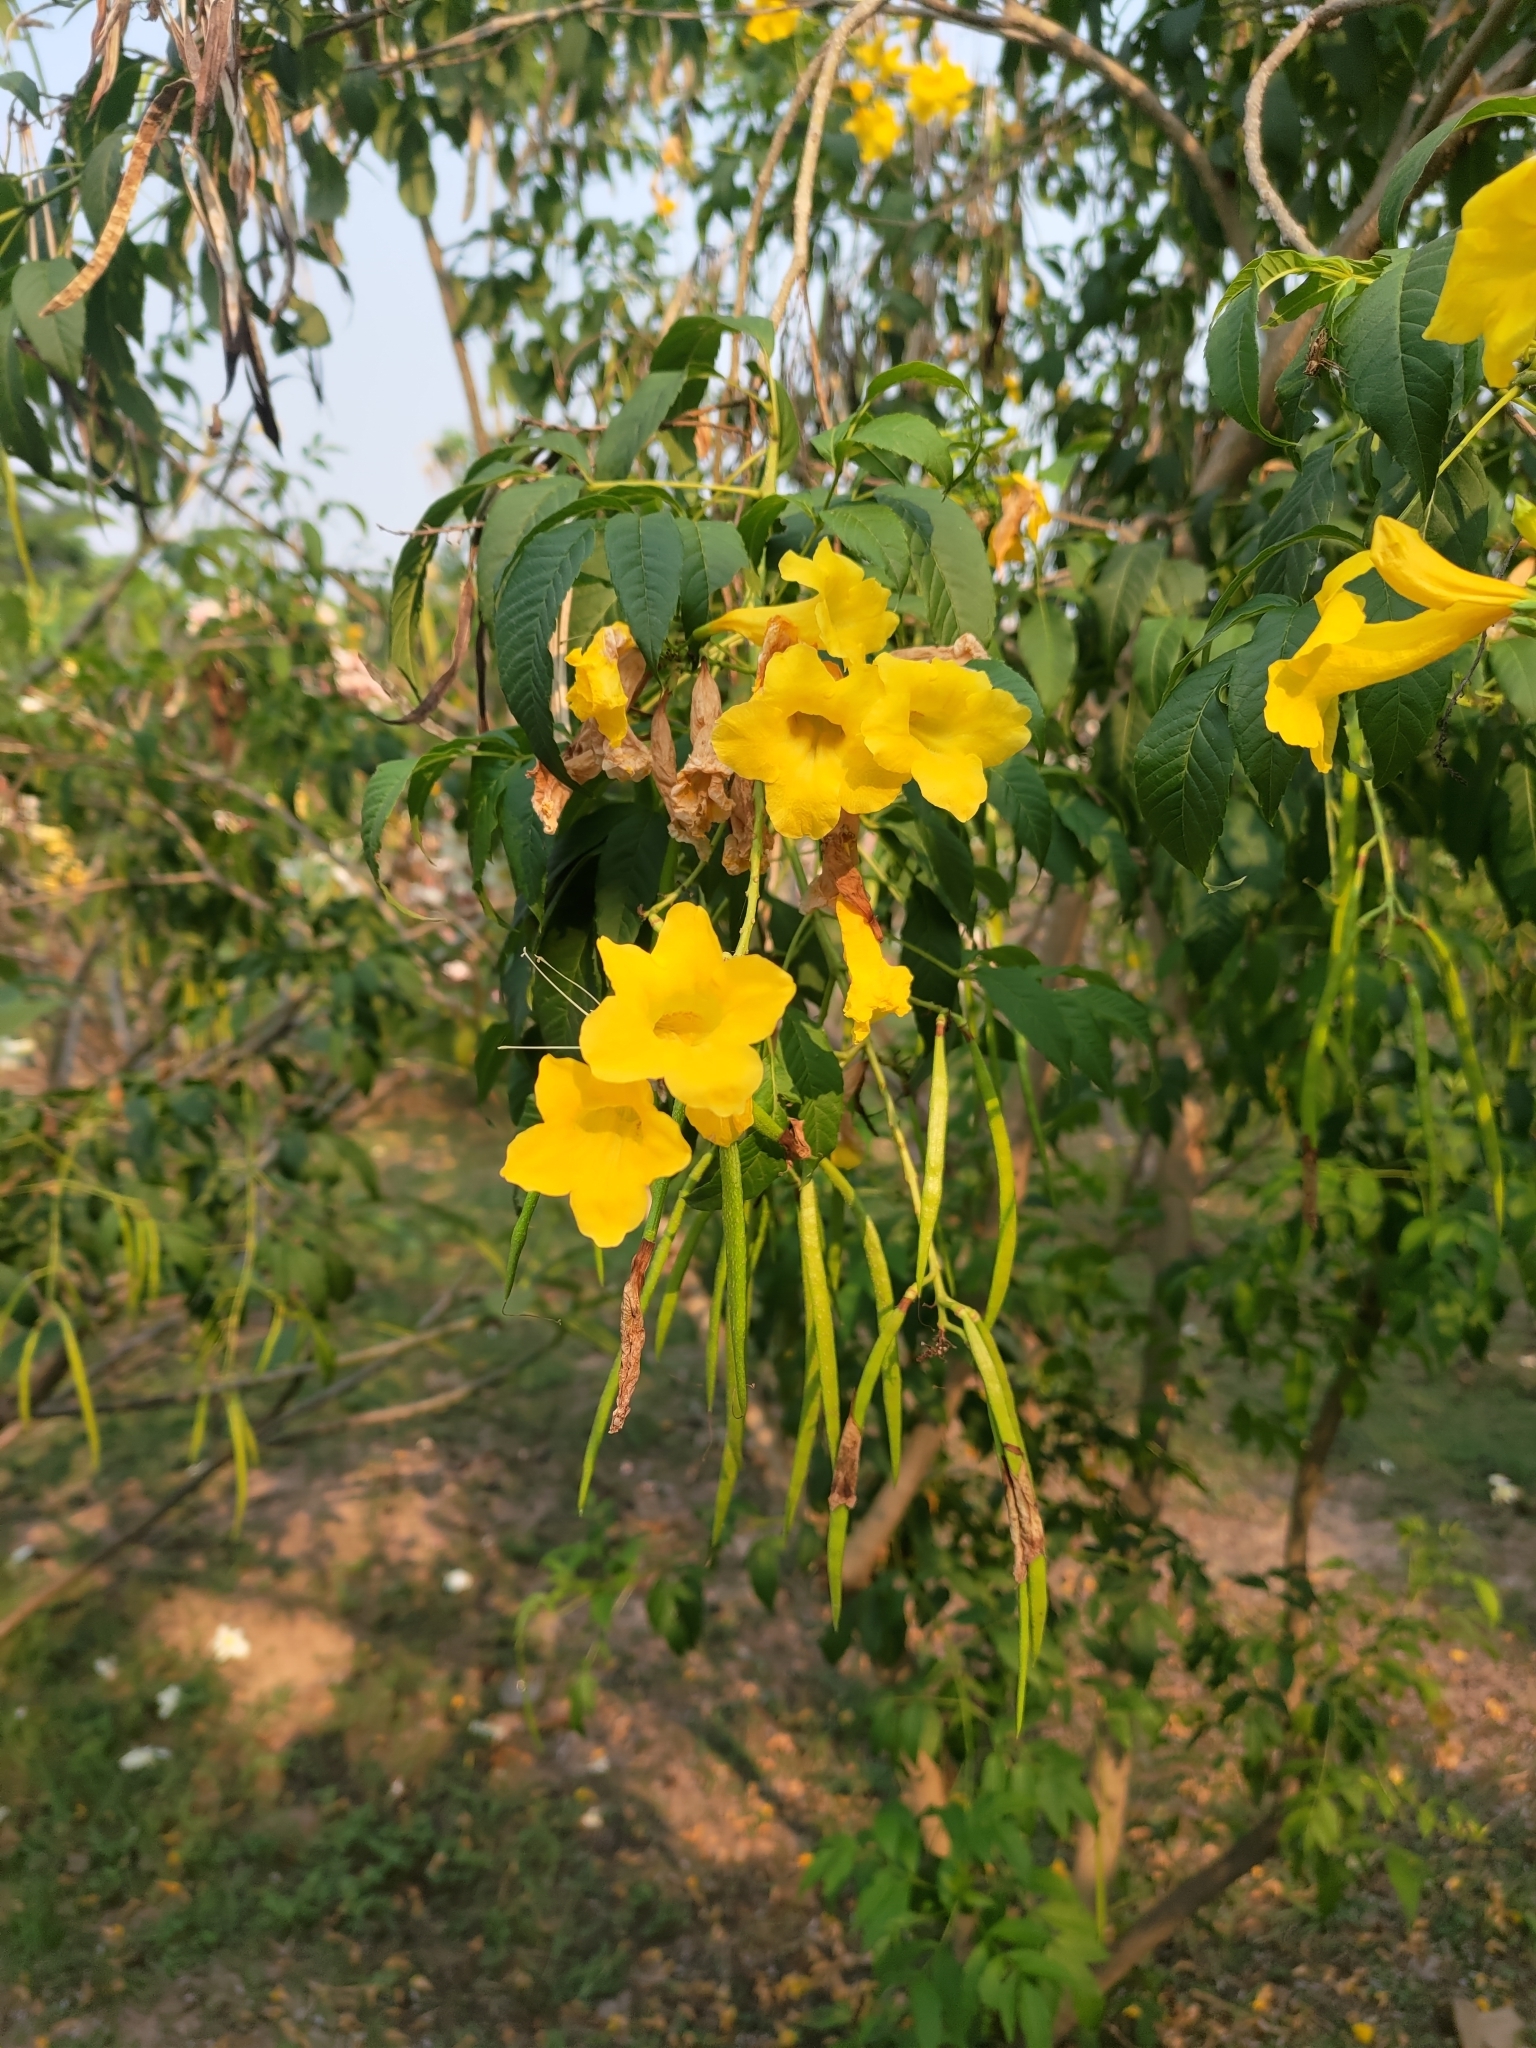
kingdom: Plantae
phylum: Tracheophyta
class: Magnoliopsida
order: Lamiales
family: Bignoniaceae
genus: Tecoma
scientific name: Tecoma stans
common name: Yellow trumpetbush
